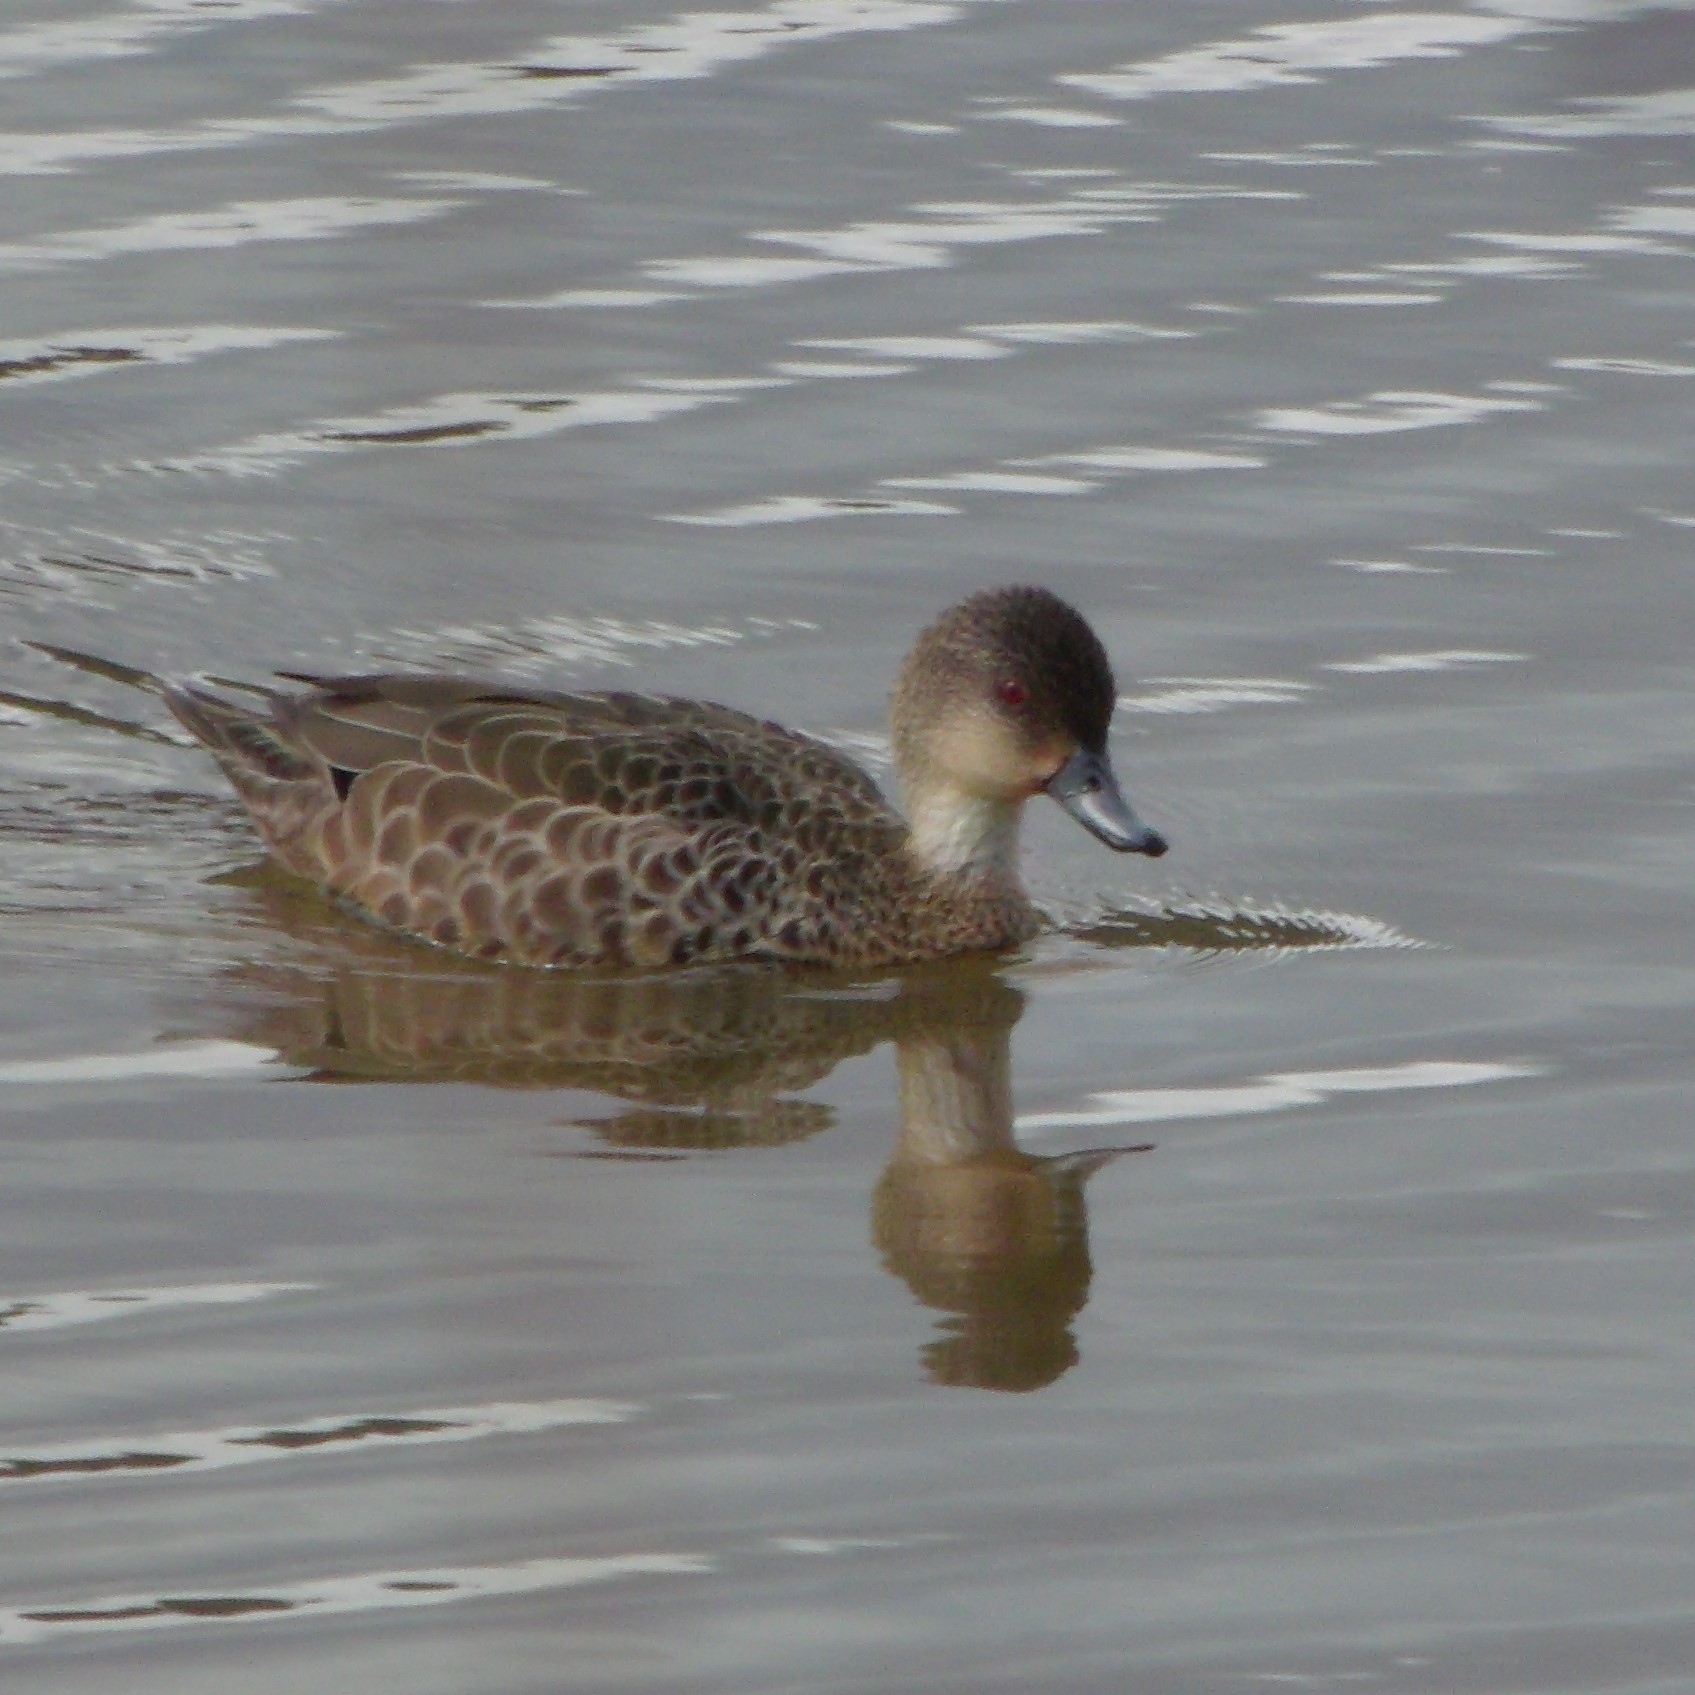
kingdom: Animalia
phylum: Chordata
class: Aves
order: Anseriformes
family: Anatidae
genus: Anas
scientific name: Anas gracilis
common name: Grey teal
